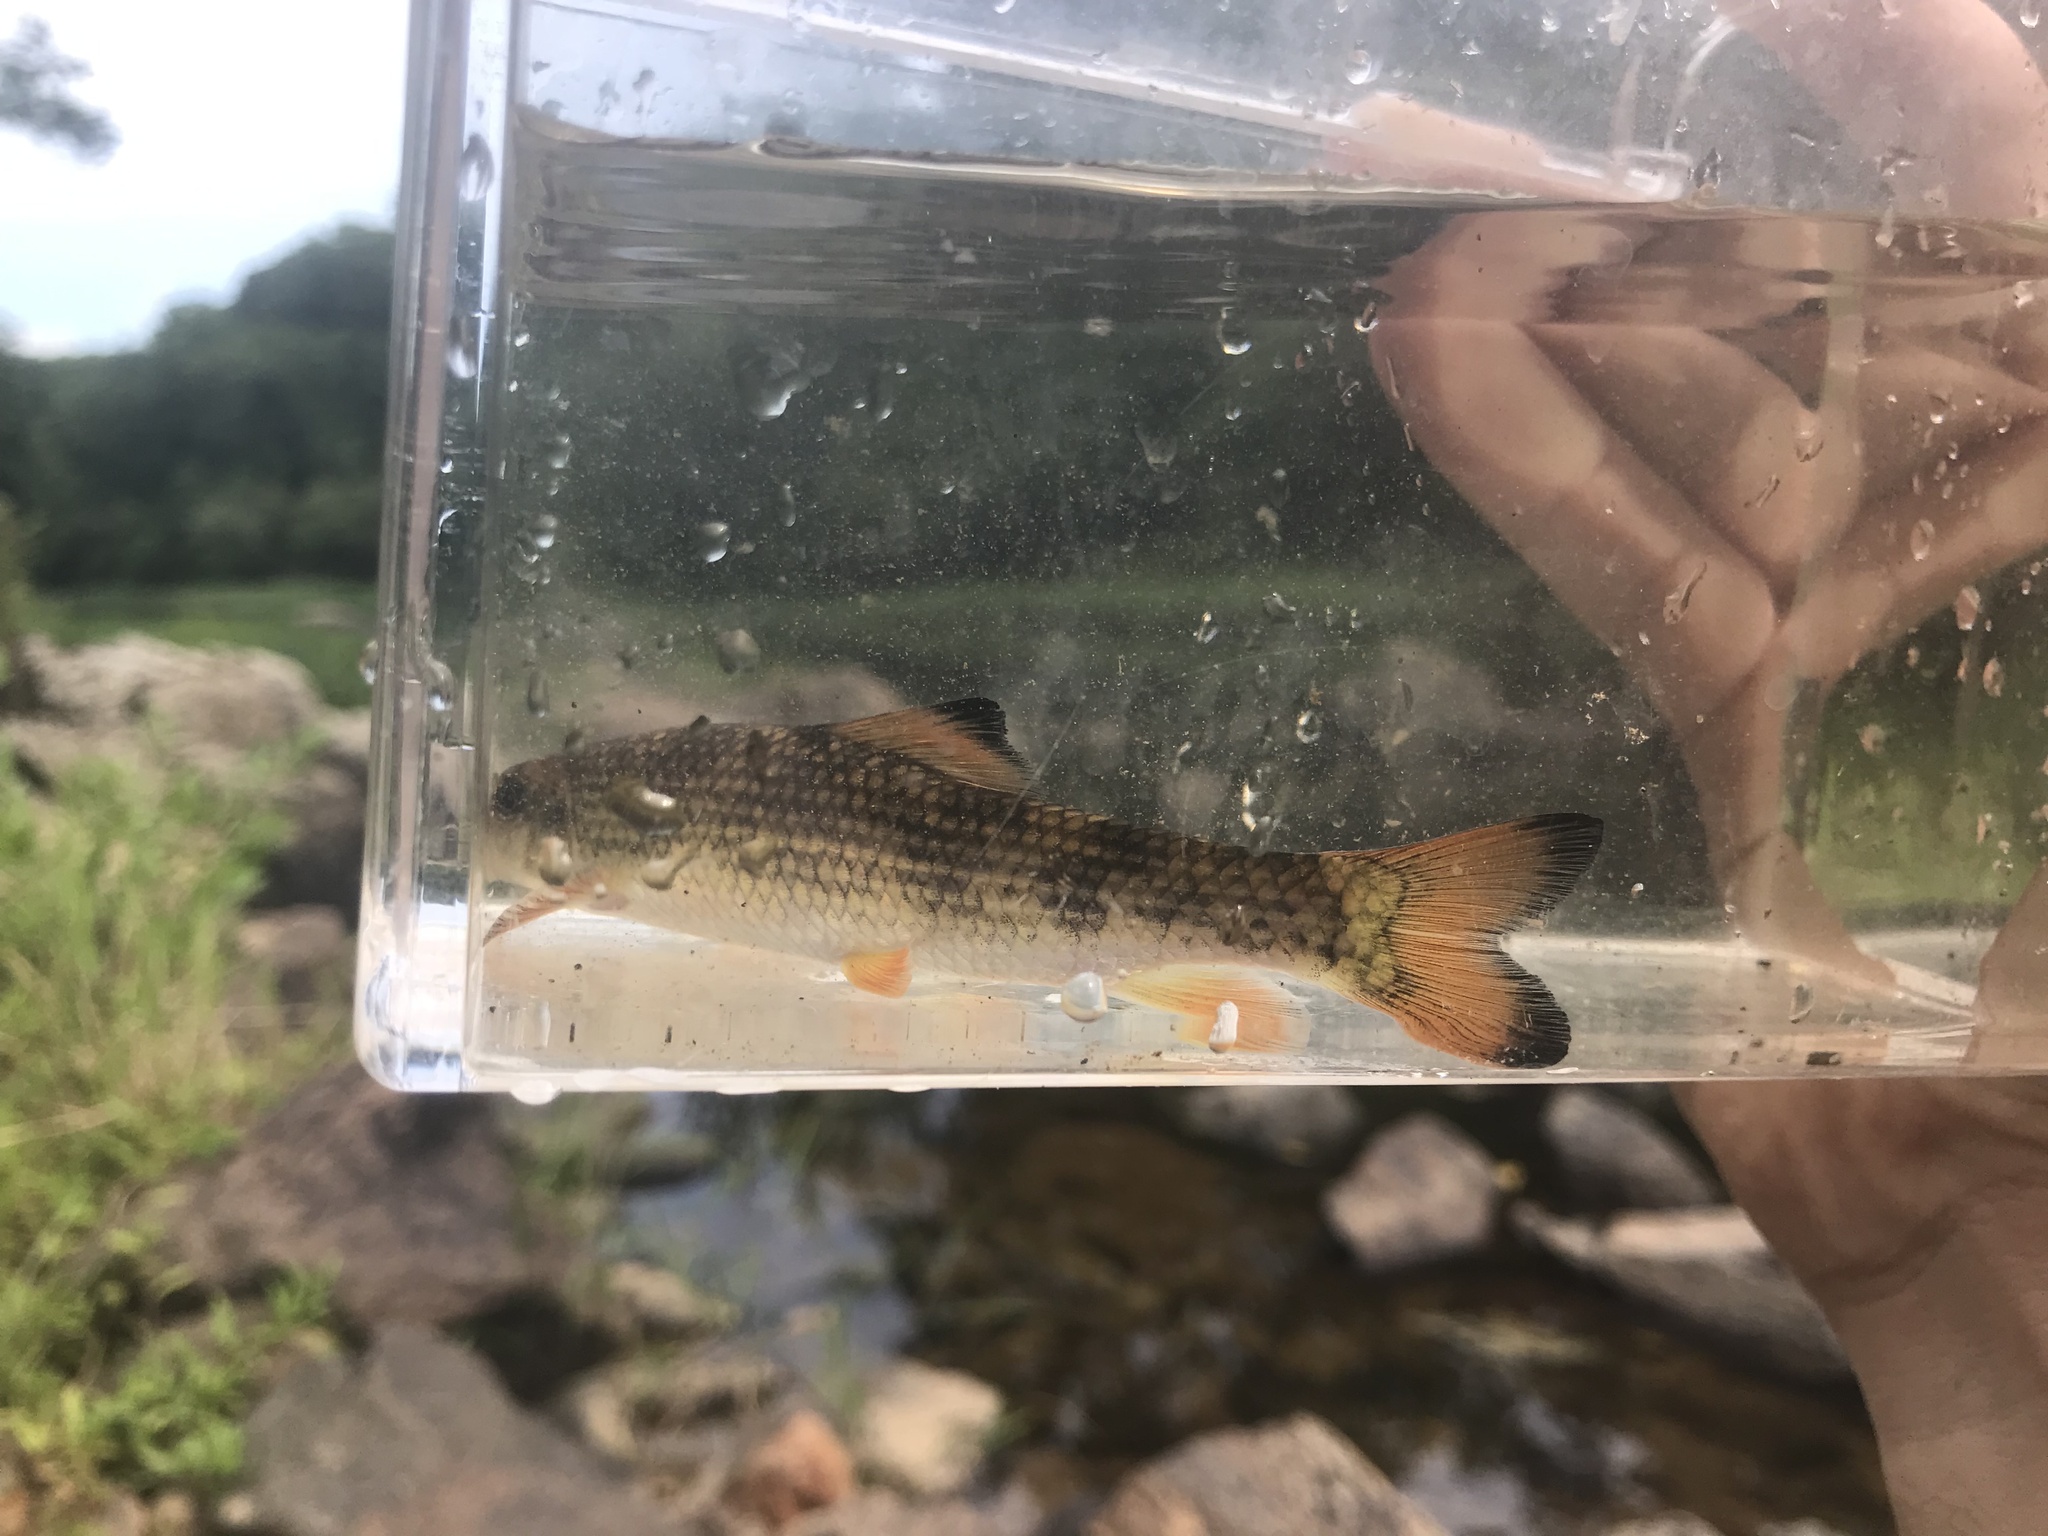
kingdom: Animalia
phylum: Chordata
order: Cypriniformes
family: Catostomidae
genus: Moxostoma
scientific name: Moxostoma cervinum
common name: Blacktip jumprock
